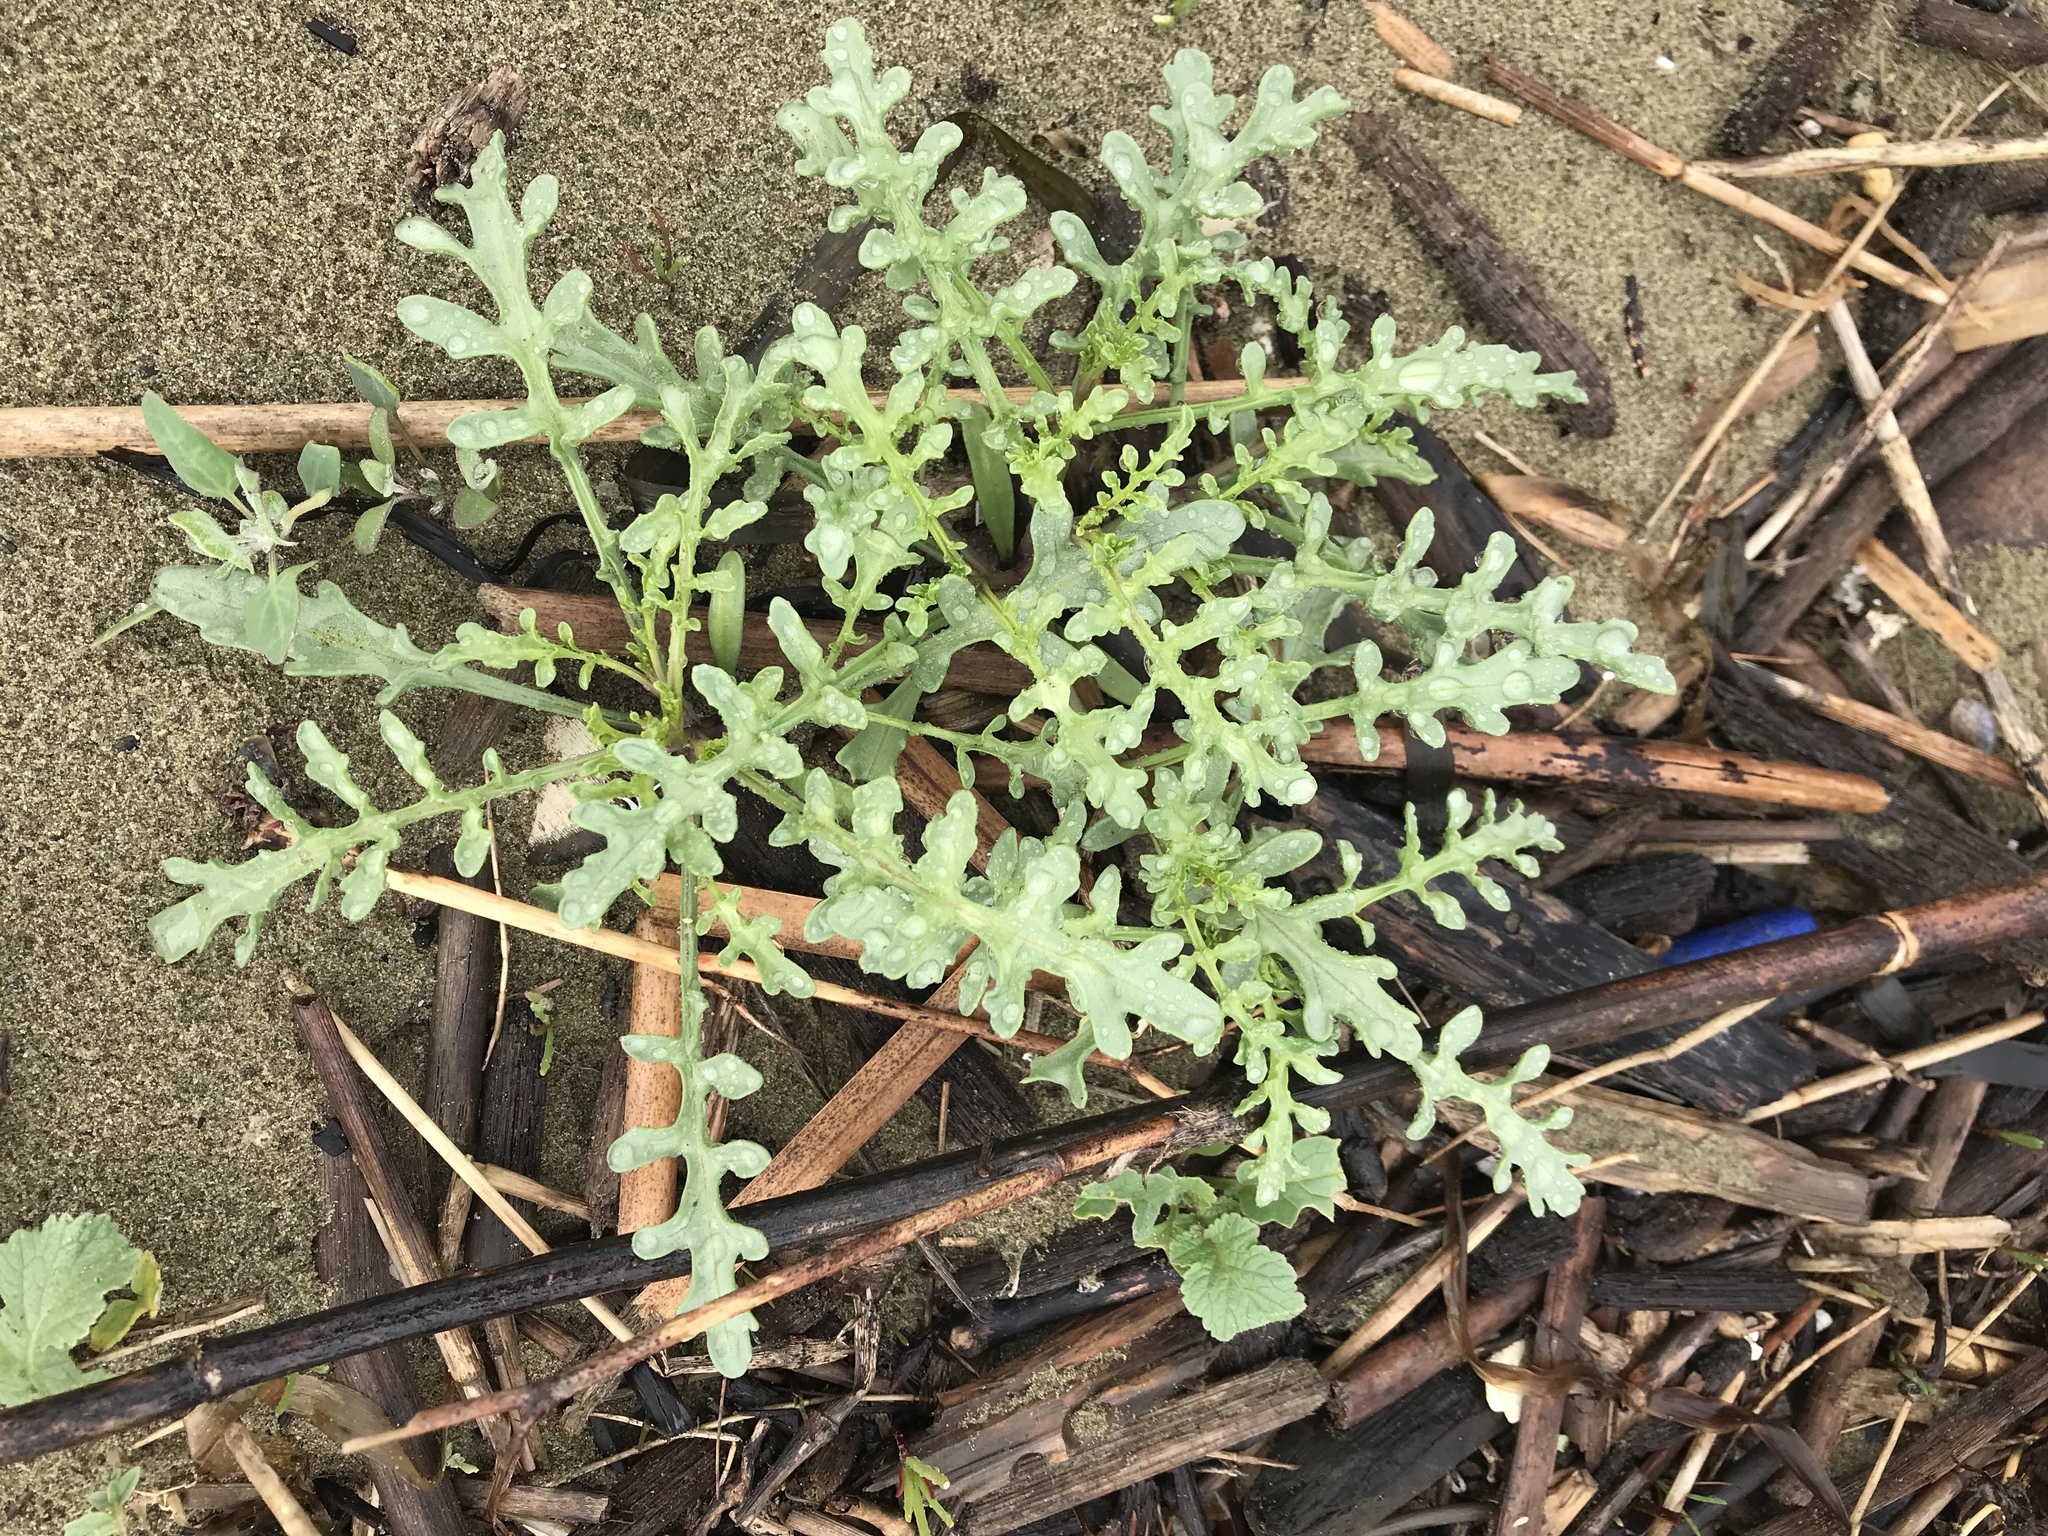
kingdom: Plantae
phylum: Tracheophyta
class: Magnoliopsida
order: Brassicales
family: Brassicaceae
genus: Cakile
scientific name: Cakile maritima
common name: Sea rocket
